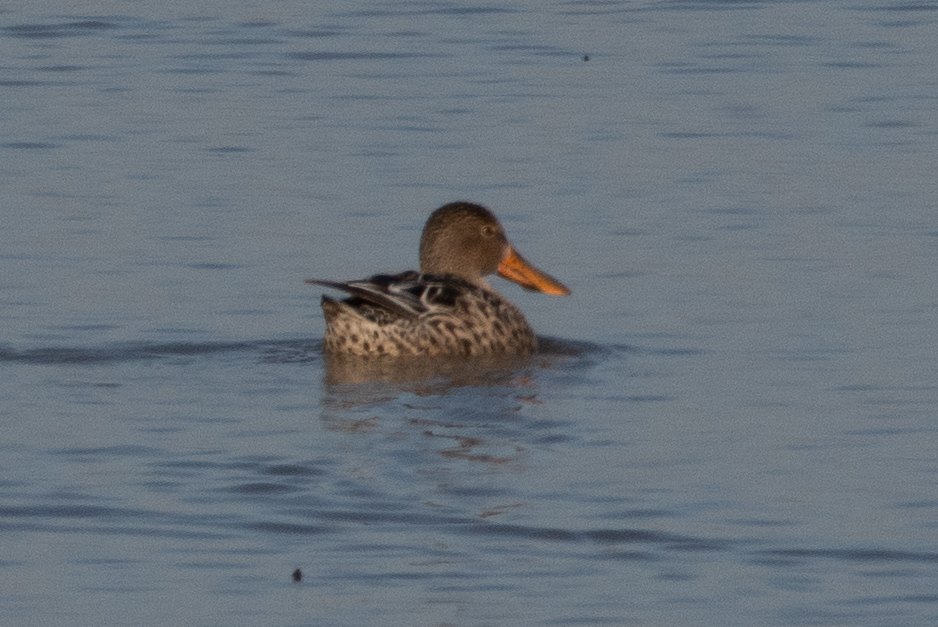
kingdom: Animalia
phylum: Chordata
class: Aves
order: Anseriformes
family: Anatidae
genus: Spatula
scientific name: Spatula clypeata
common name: Northern shoveler
